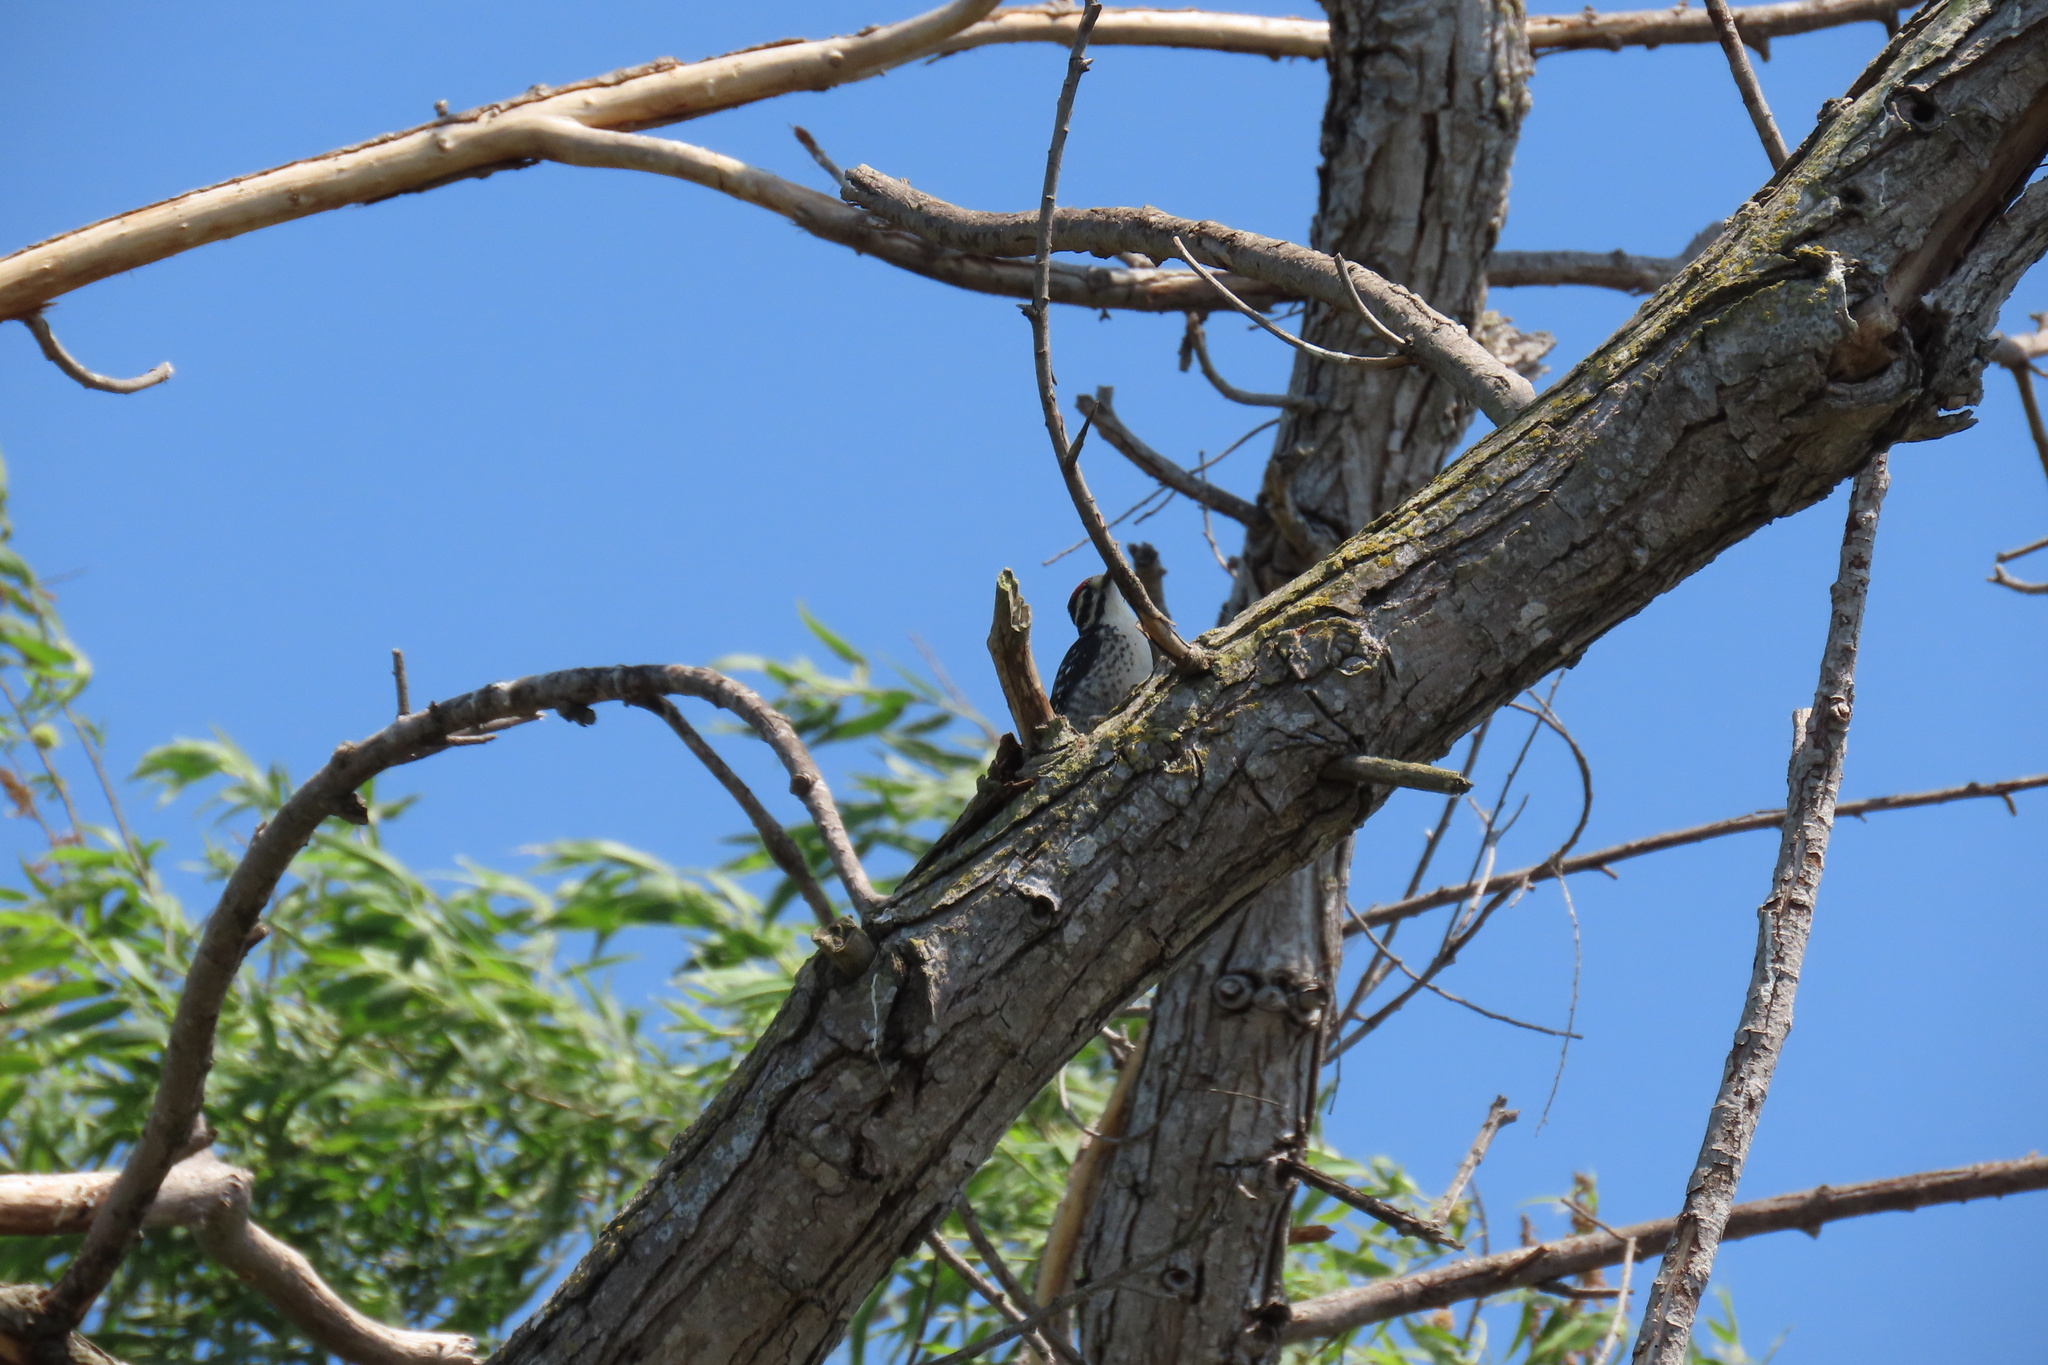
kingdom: Animalia
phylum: Chordata
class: Aves
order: Piciformes
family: Picidae
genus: Dryobates
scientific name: Dryobates nuttallii
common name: Nuttall's woodpecker
